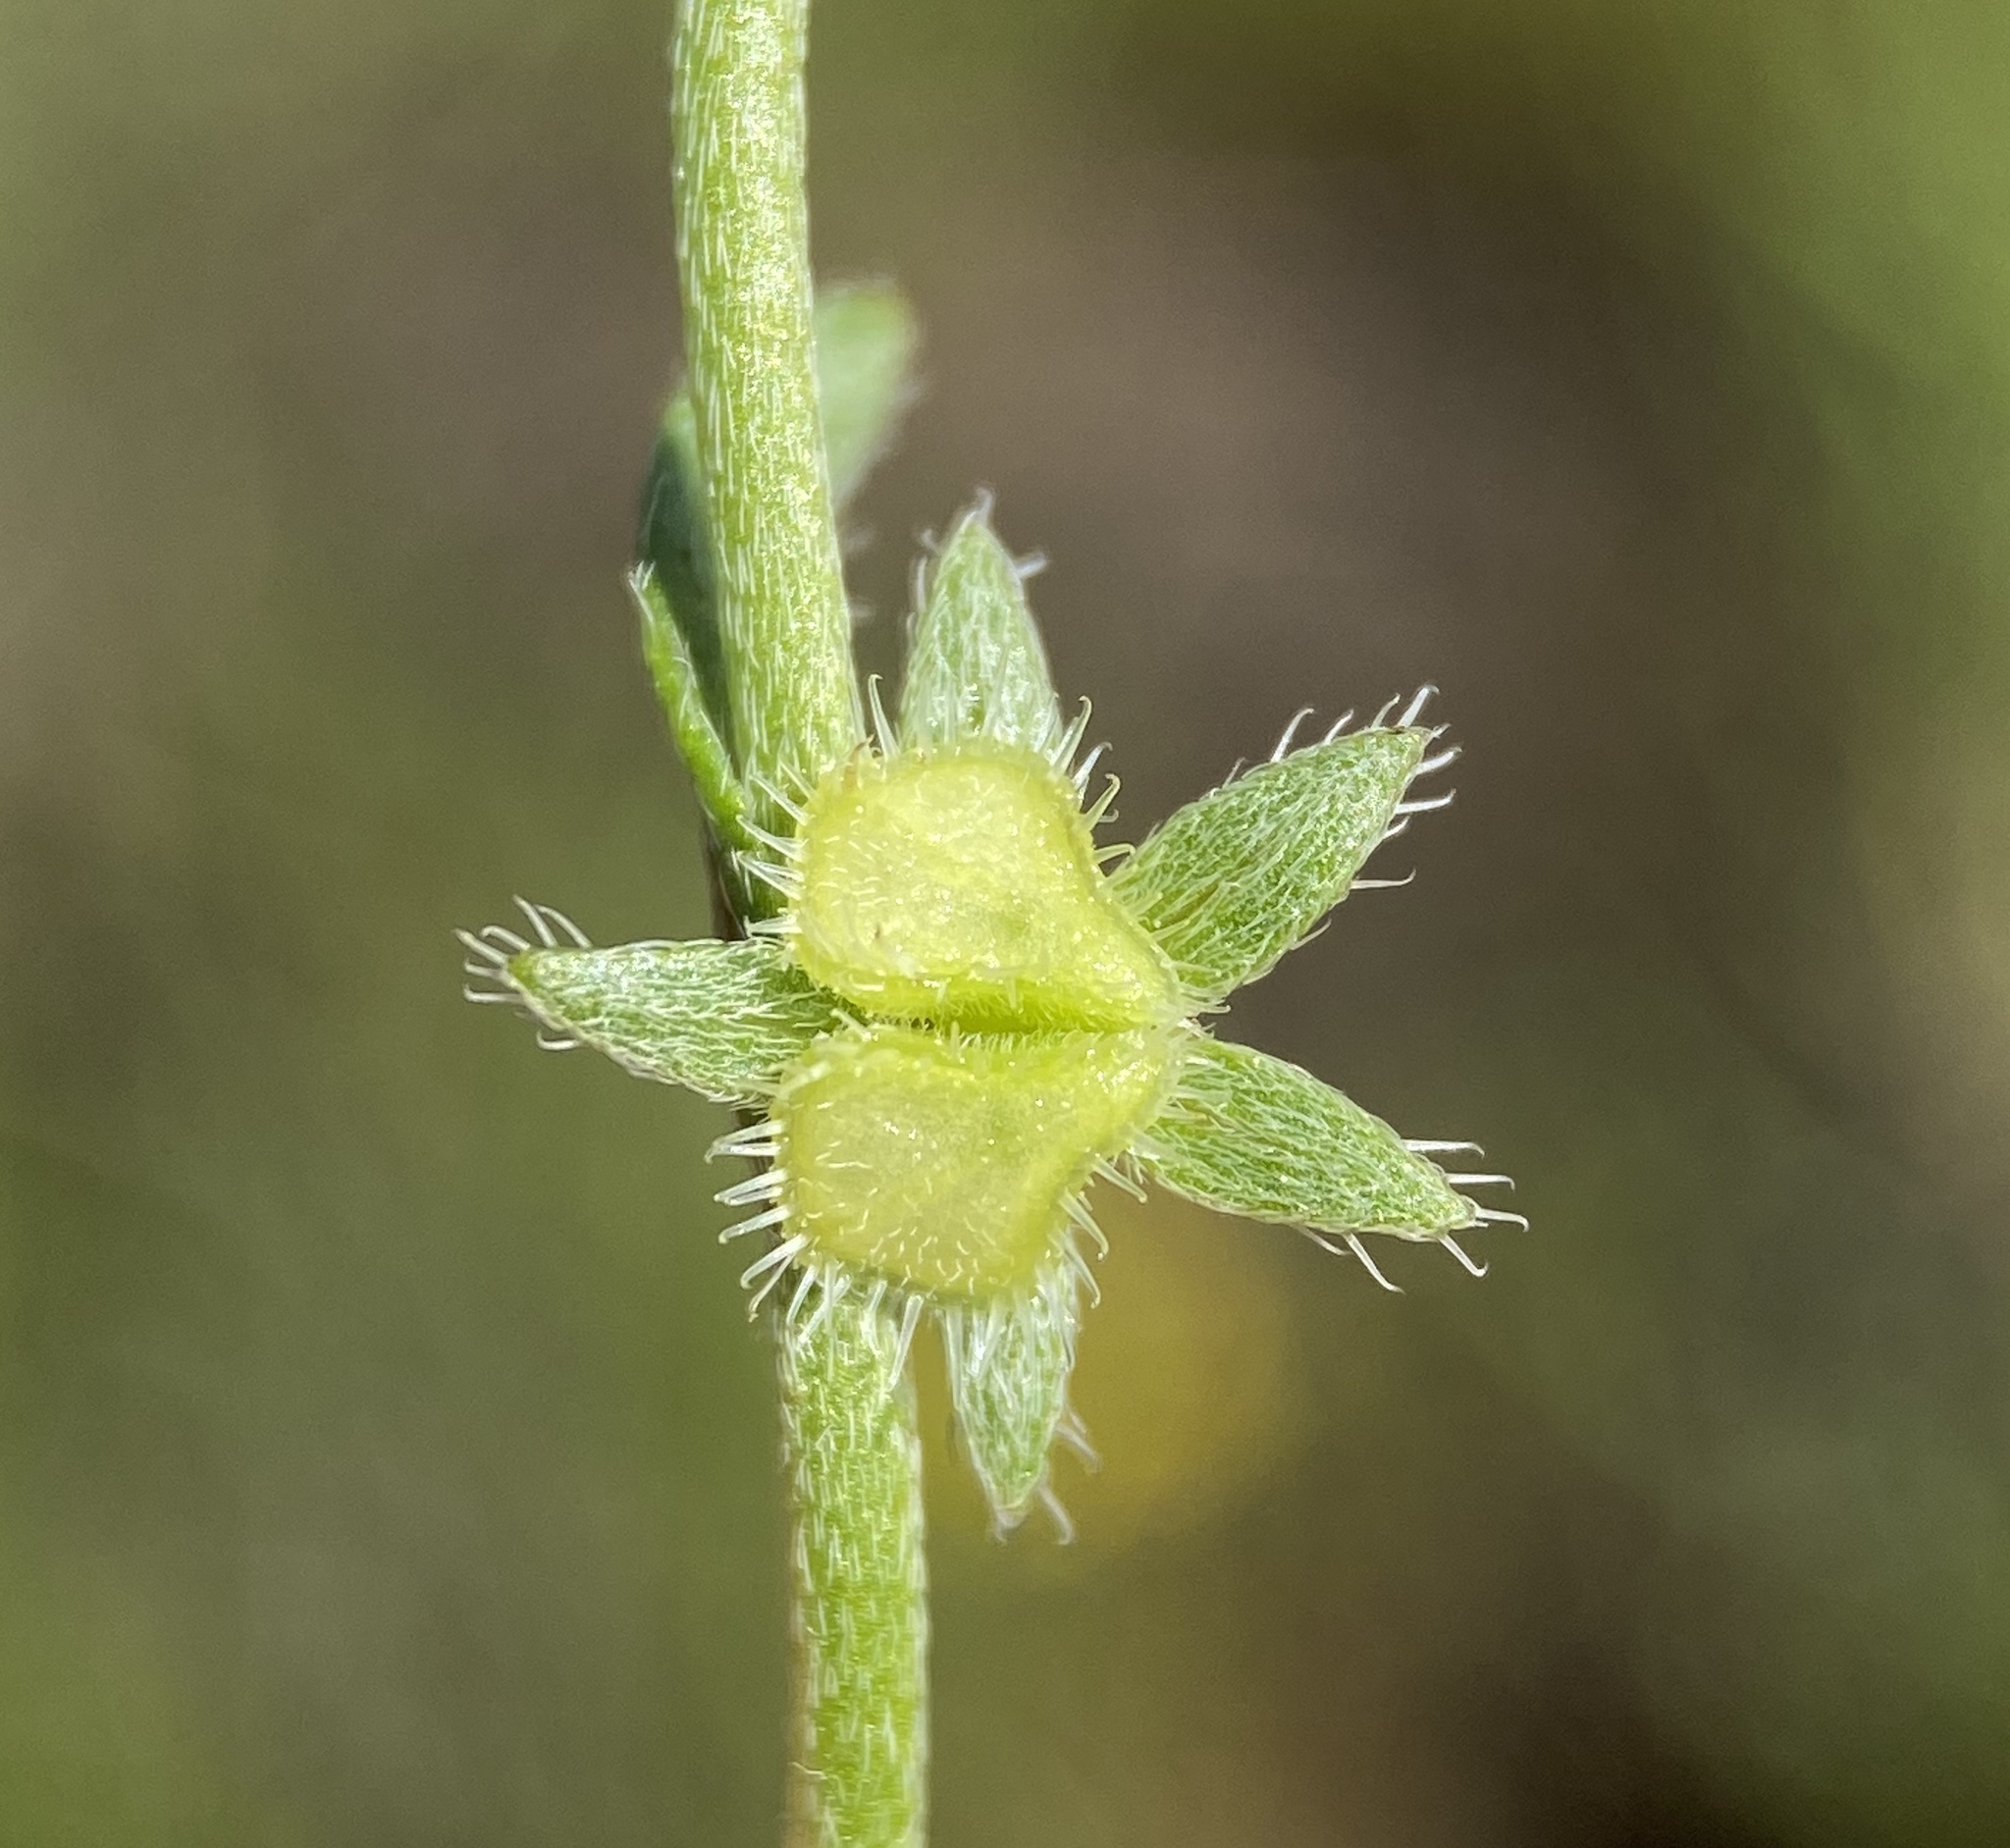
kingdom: Plantae
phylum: Tracheophyta
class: Magnoliopsida
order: Boraginales
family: Boraginaceae
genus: Pectocarya
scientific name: Pectocarya pusilla
